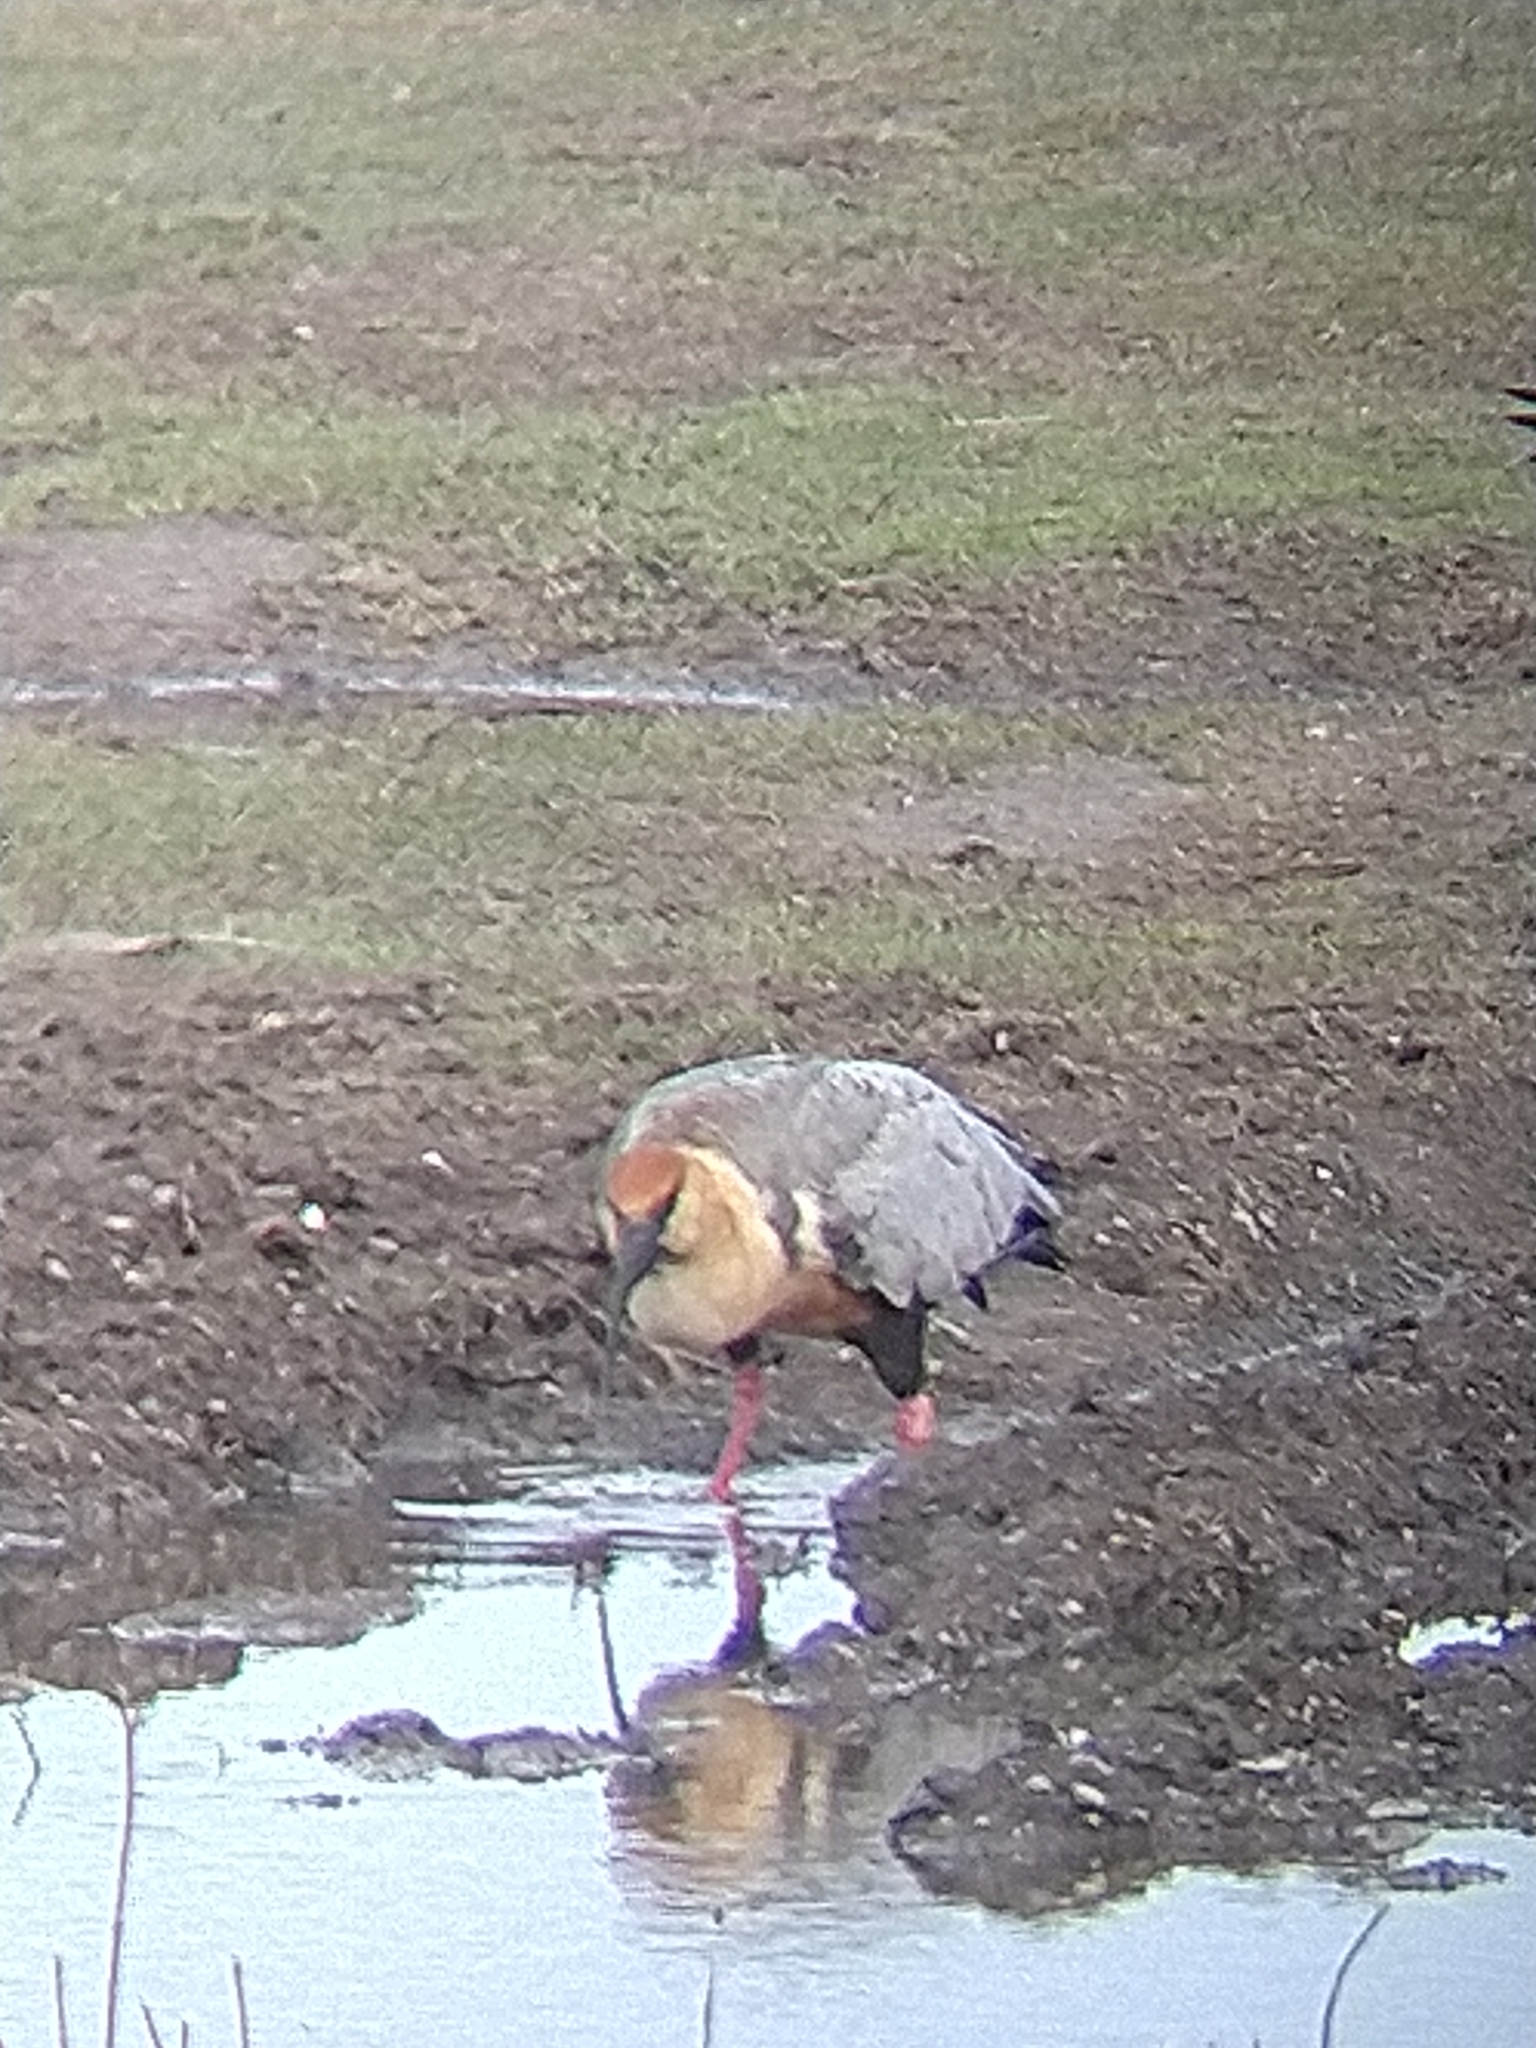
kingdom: Animalia
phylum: Chordata
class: Aves
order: Pelecaniformes
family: Threskiornithidae
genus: Theristicus
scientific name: Theristicus melanopis
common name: Black-faced ibis
